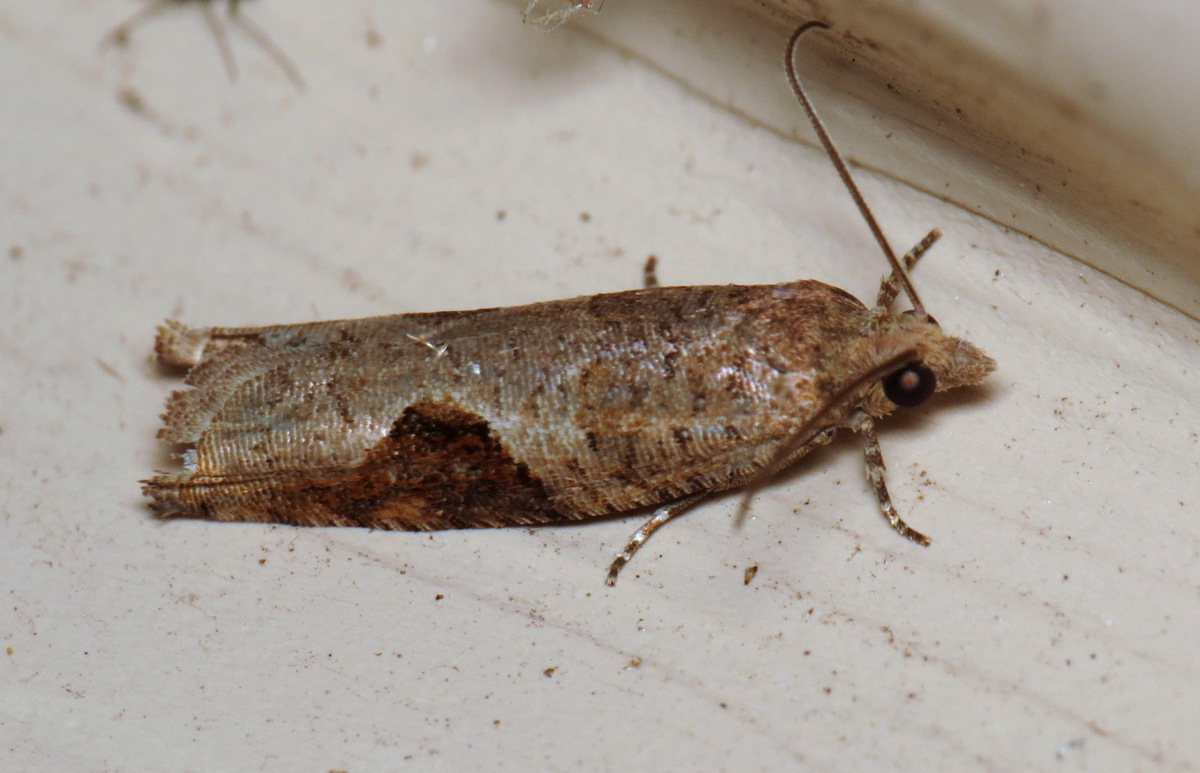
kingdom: Animalia
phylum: Arthropoda
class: Insecta
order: Lepidoptera
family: Tortricidae
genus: Pseudexentera
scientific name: Pseudexentera virginiana
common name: Virginia pseudexentera moth
